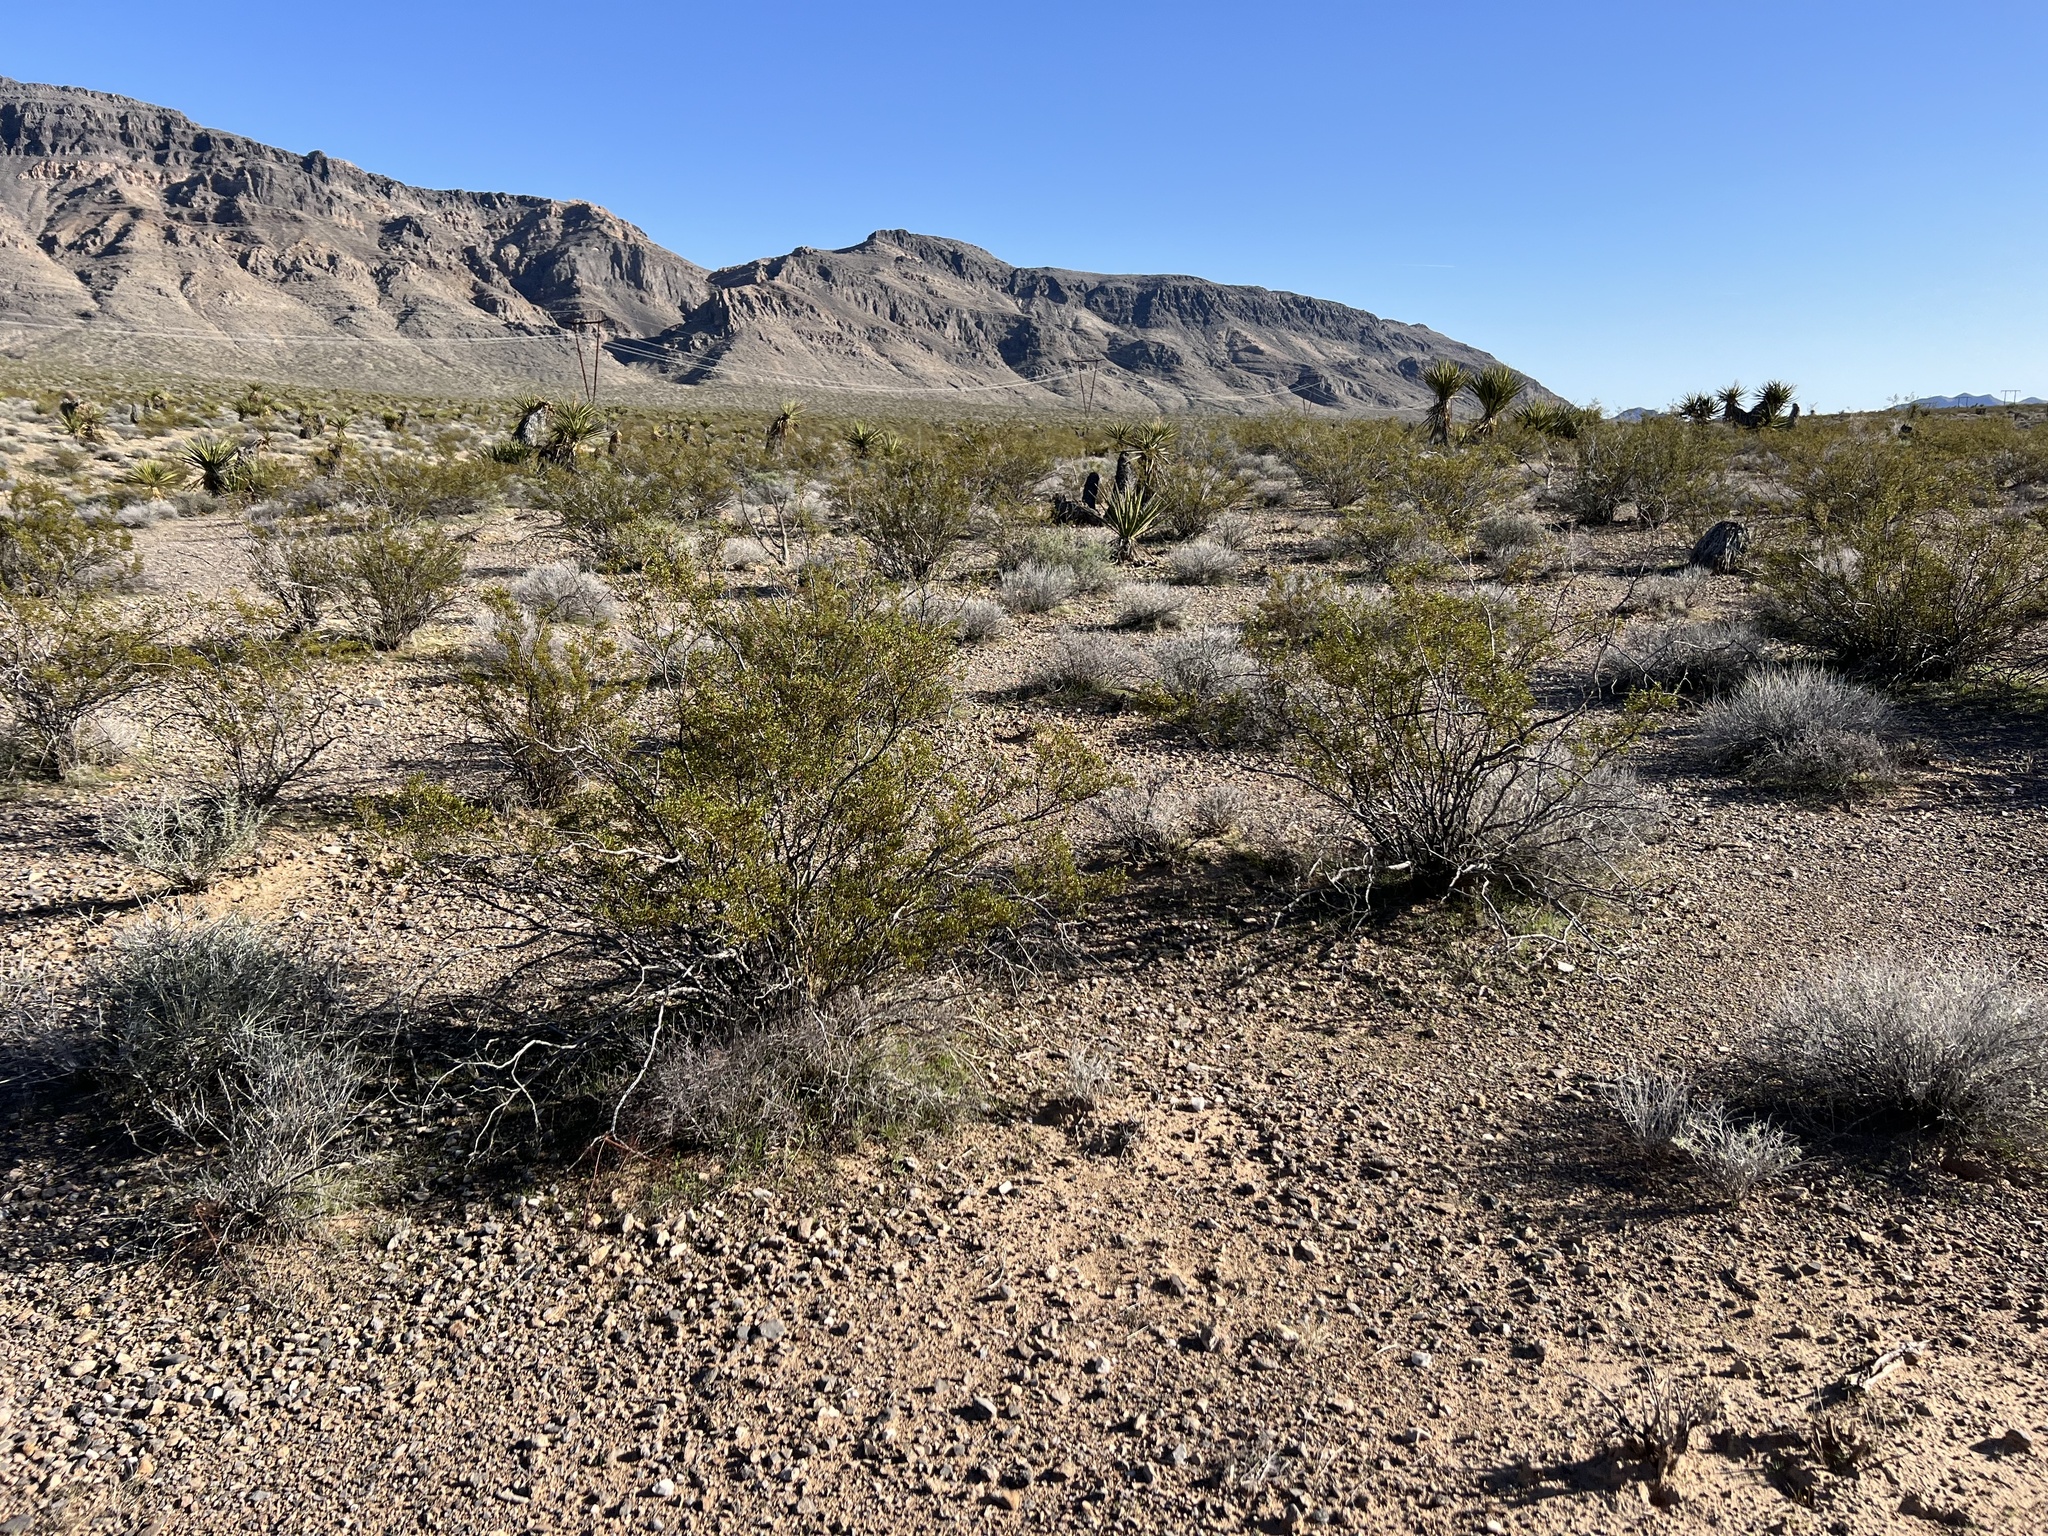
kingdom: Plantae
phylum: Tracheophyta
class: Magnoliopsida
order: Zygophyllales
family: Zygophyllaceae
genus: Larrea
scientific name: Larrea tridentata
